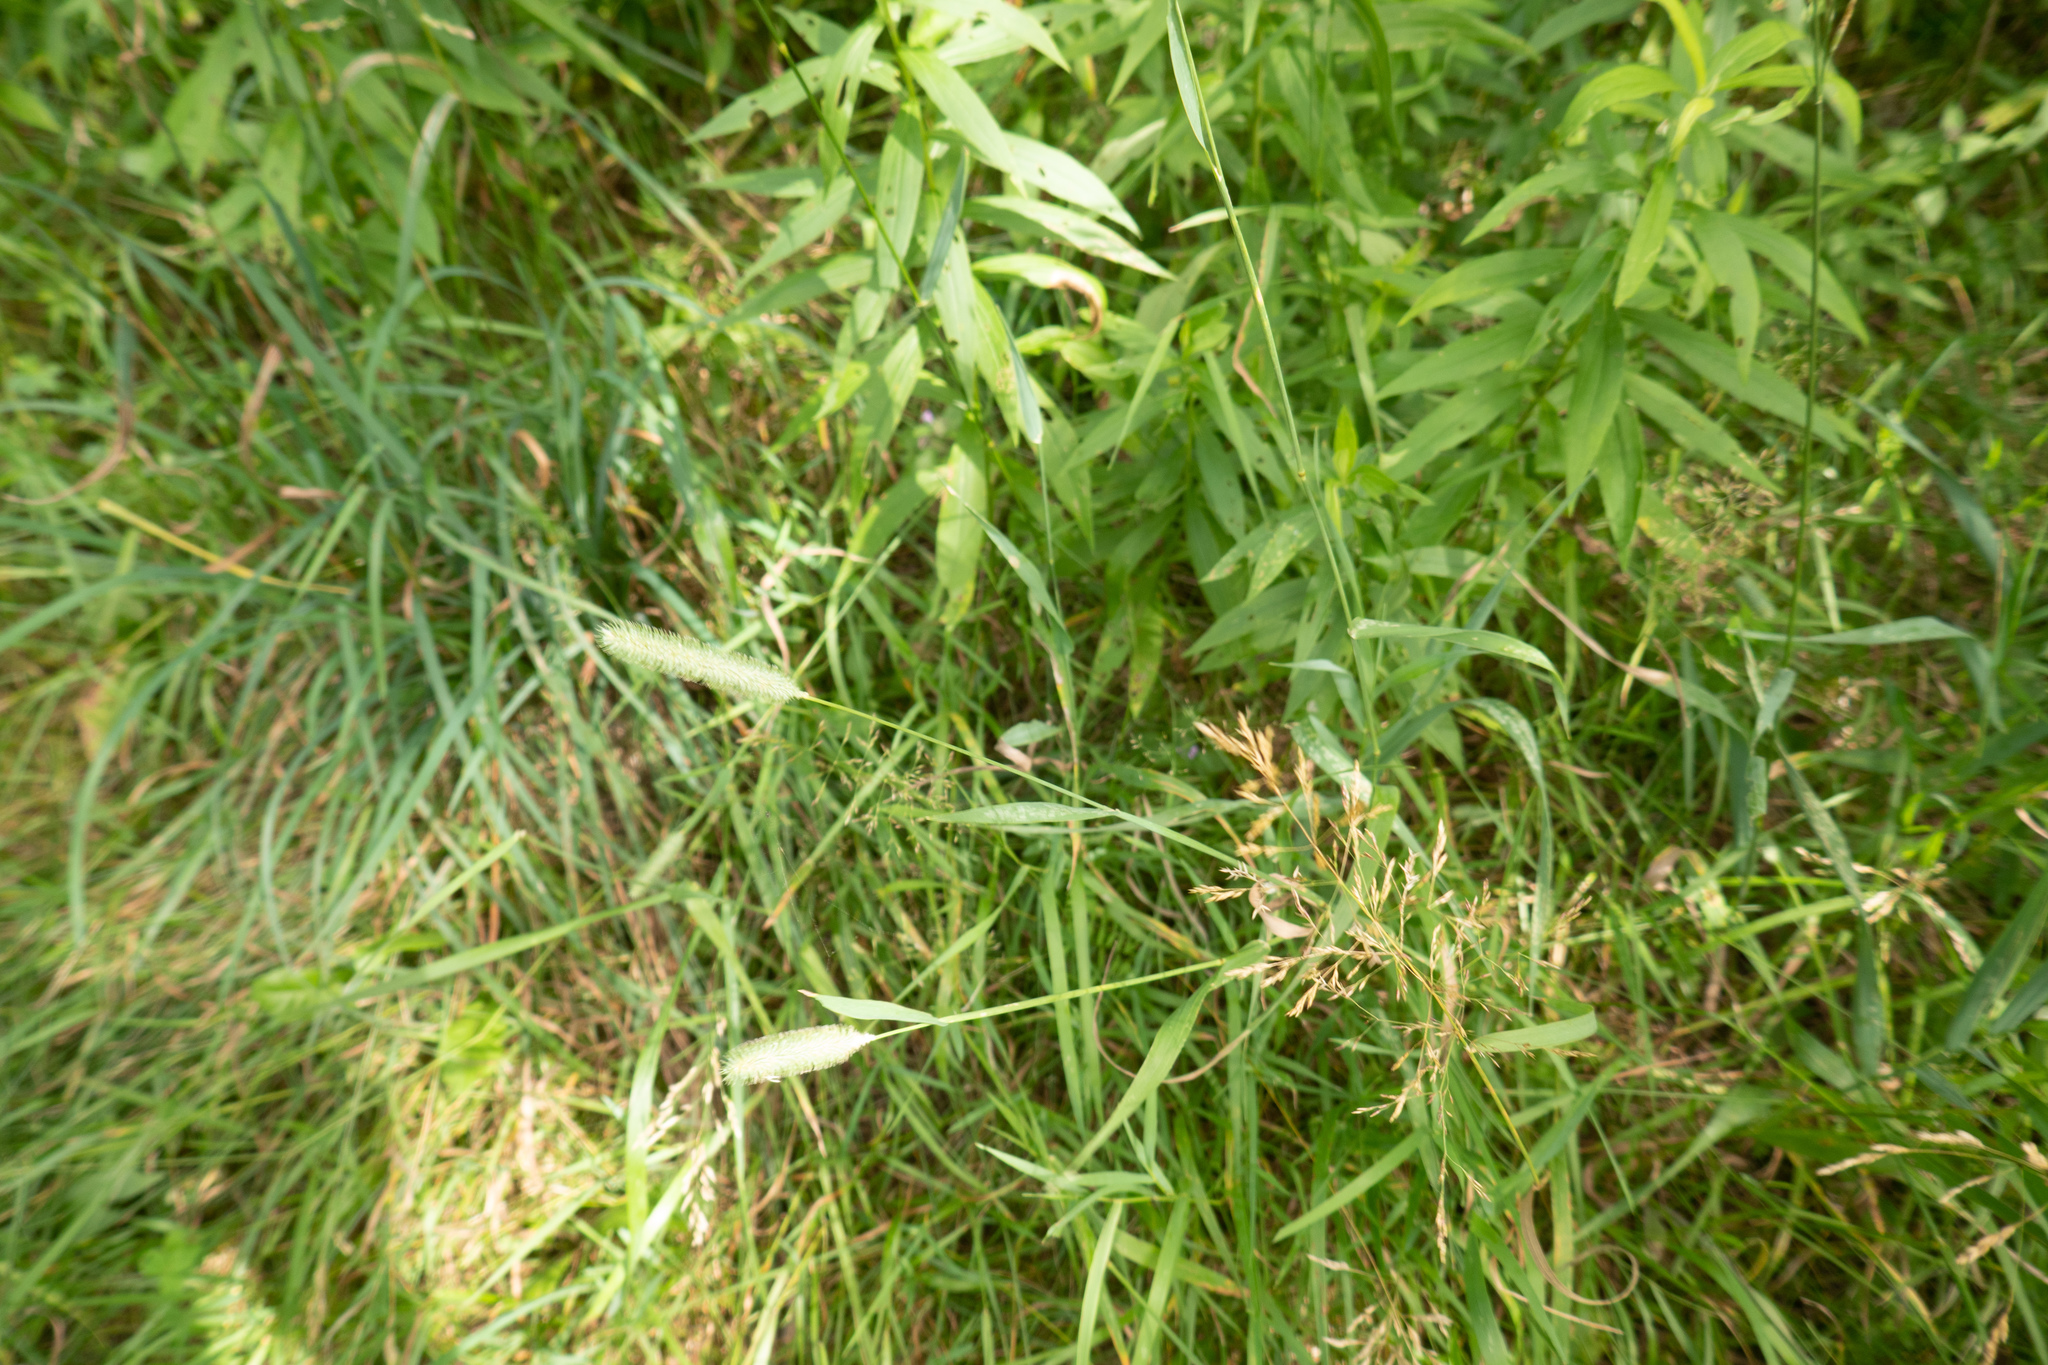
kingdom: Plantae
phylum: Tracheophyta
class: Liliopsida
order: Poales
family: Poaceae
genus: Phleum
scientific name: Phleum pratense
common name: Timothy grass
